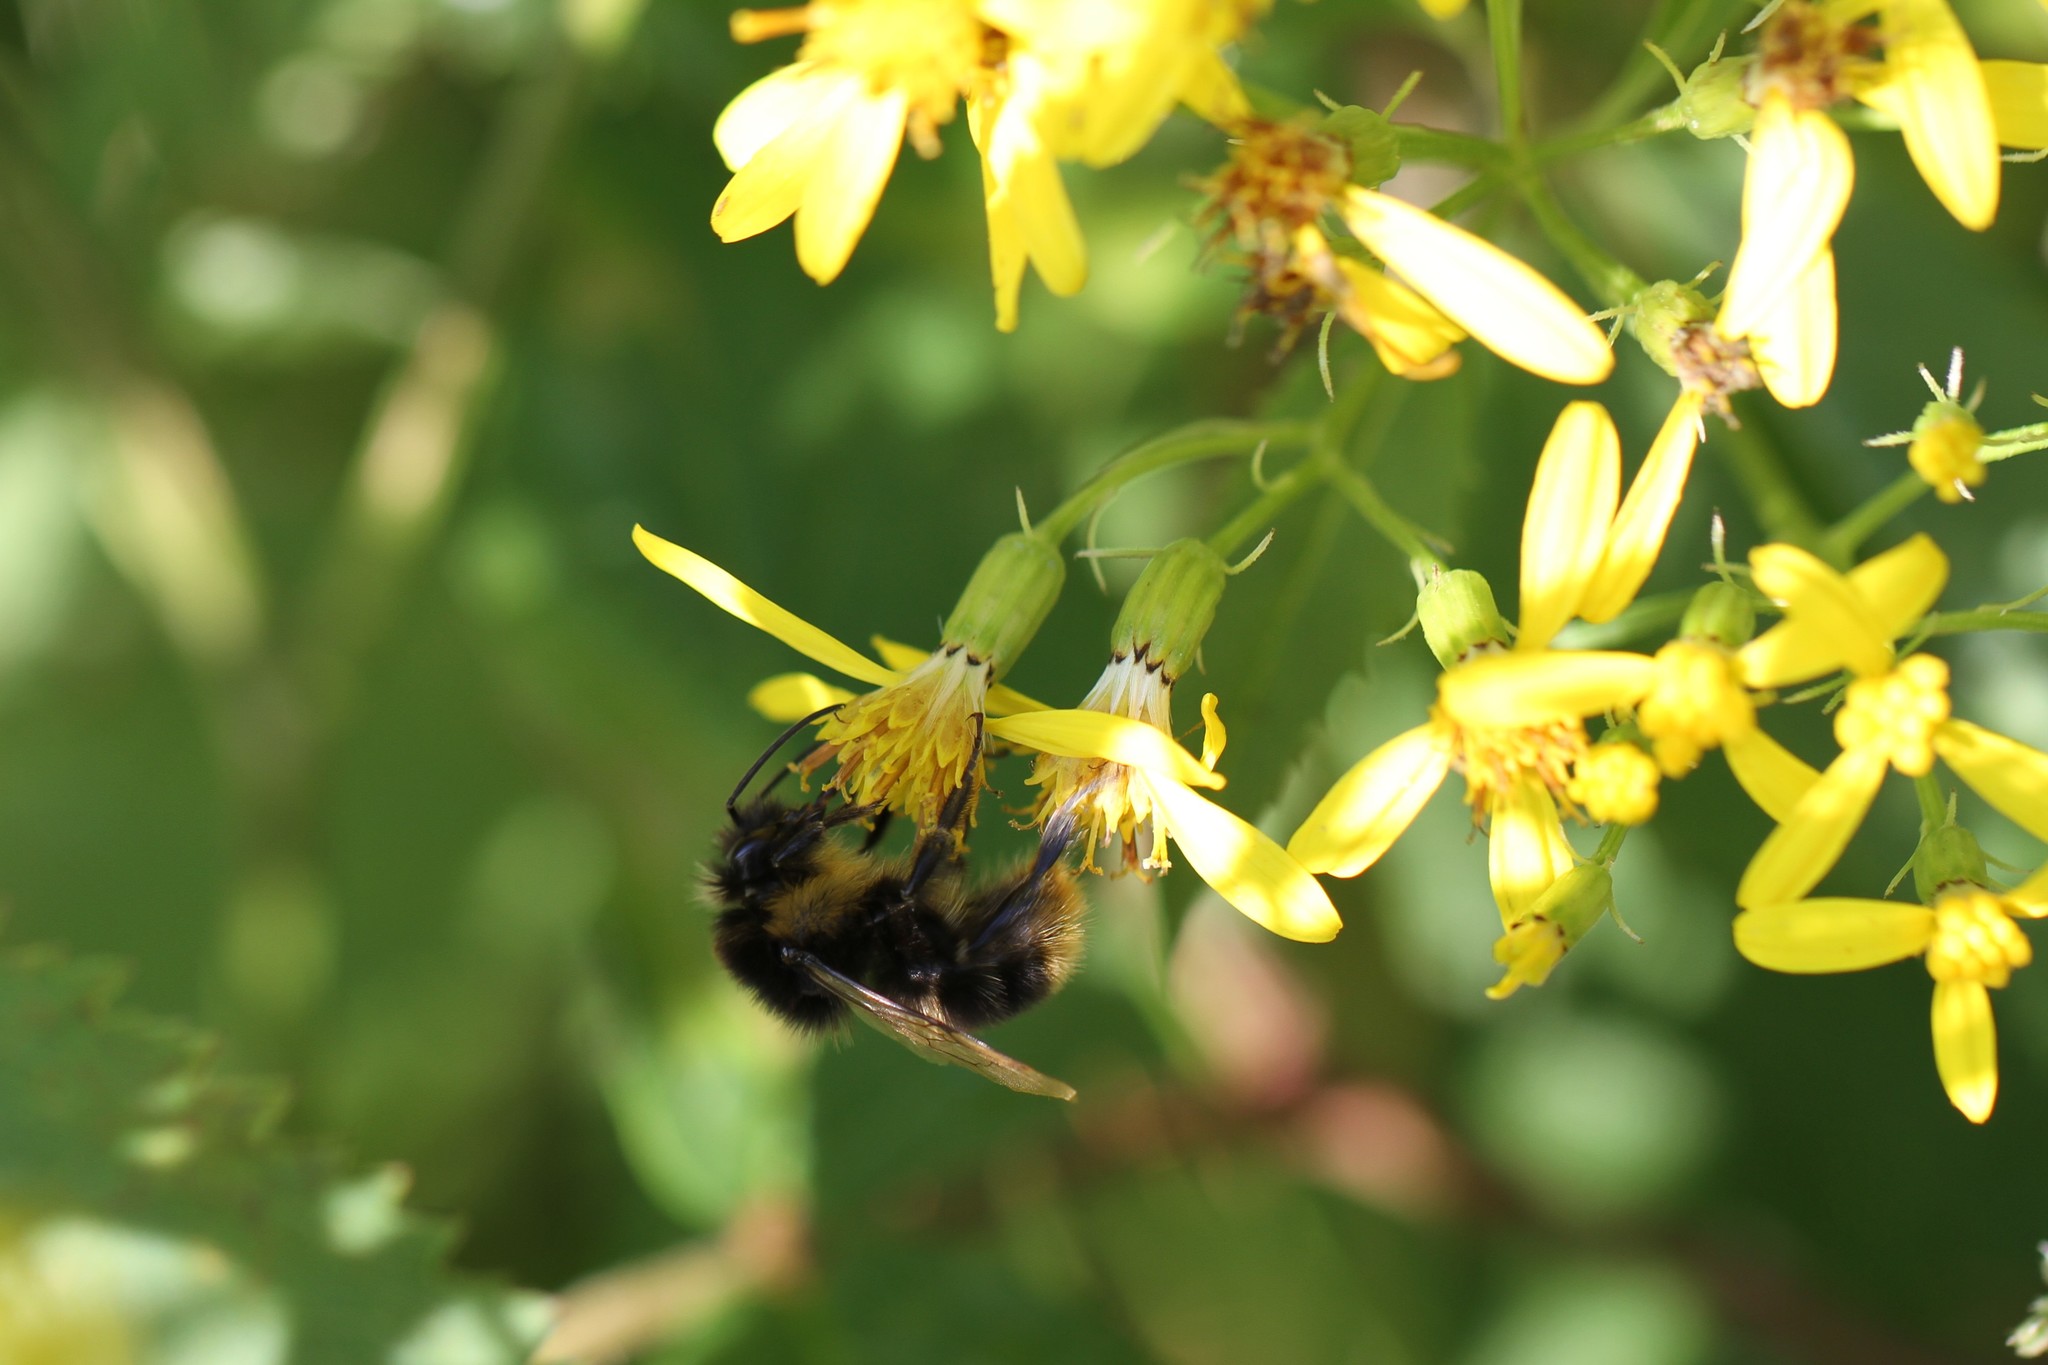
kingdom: Animalia
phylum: Arthropoda
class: Insecta
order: Hymenoptera
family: Apidae
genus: Bombus
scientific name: Bombus soroeensis
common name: Broken-belted humble-bee
